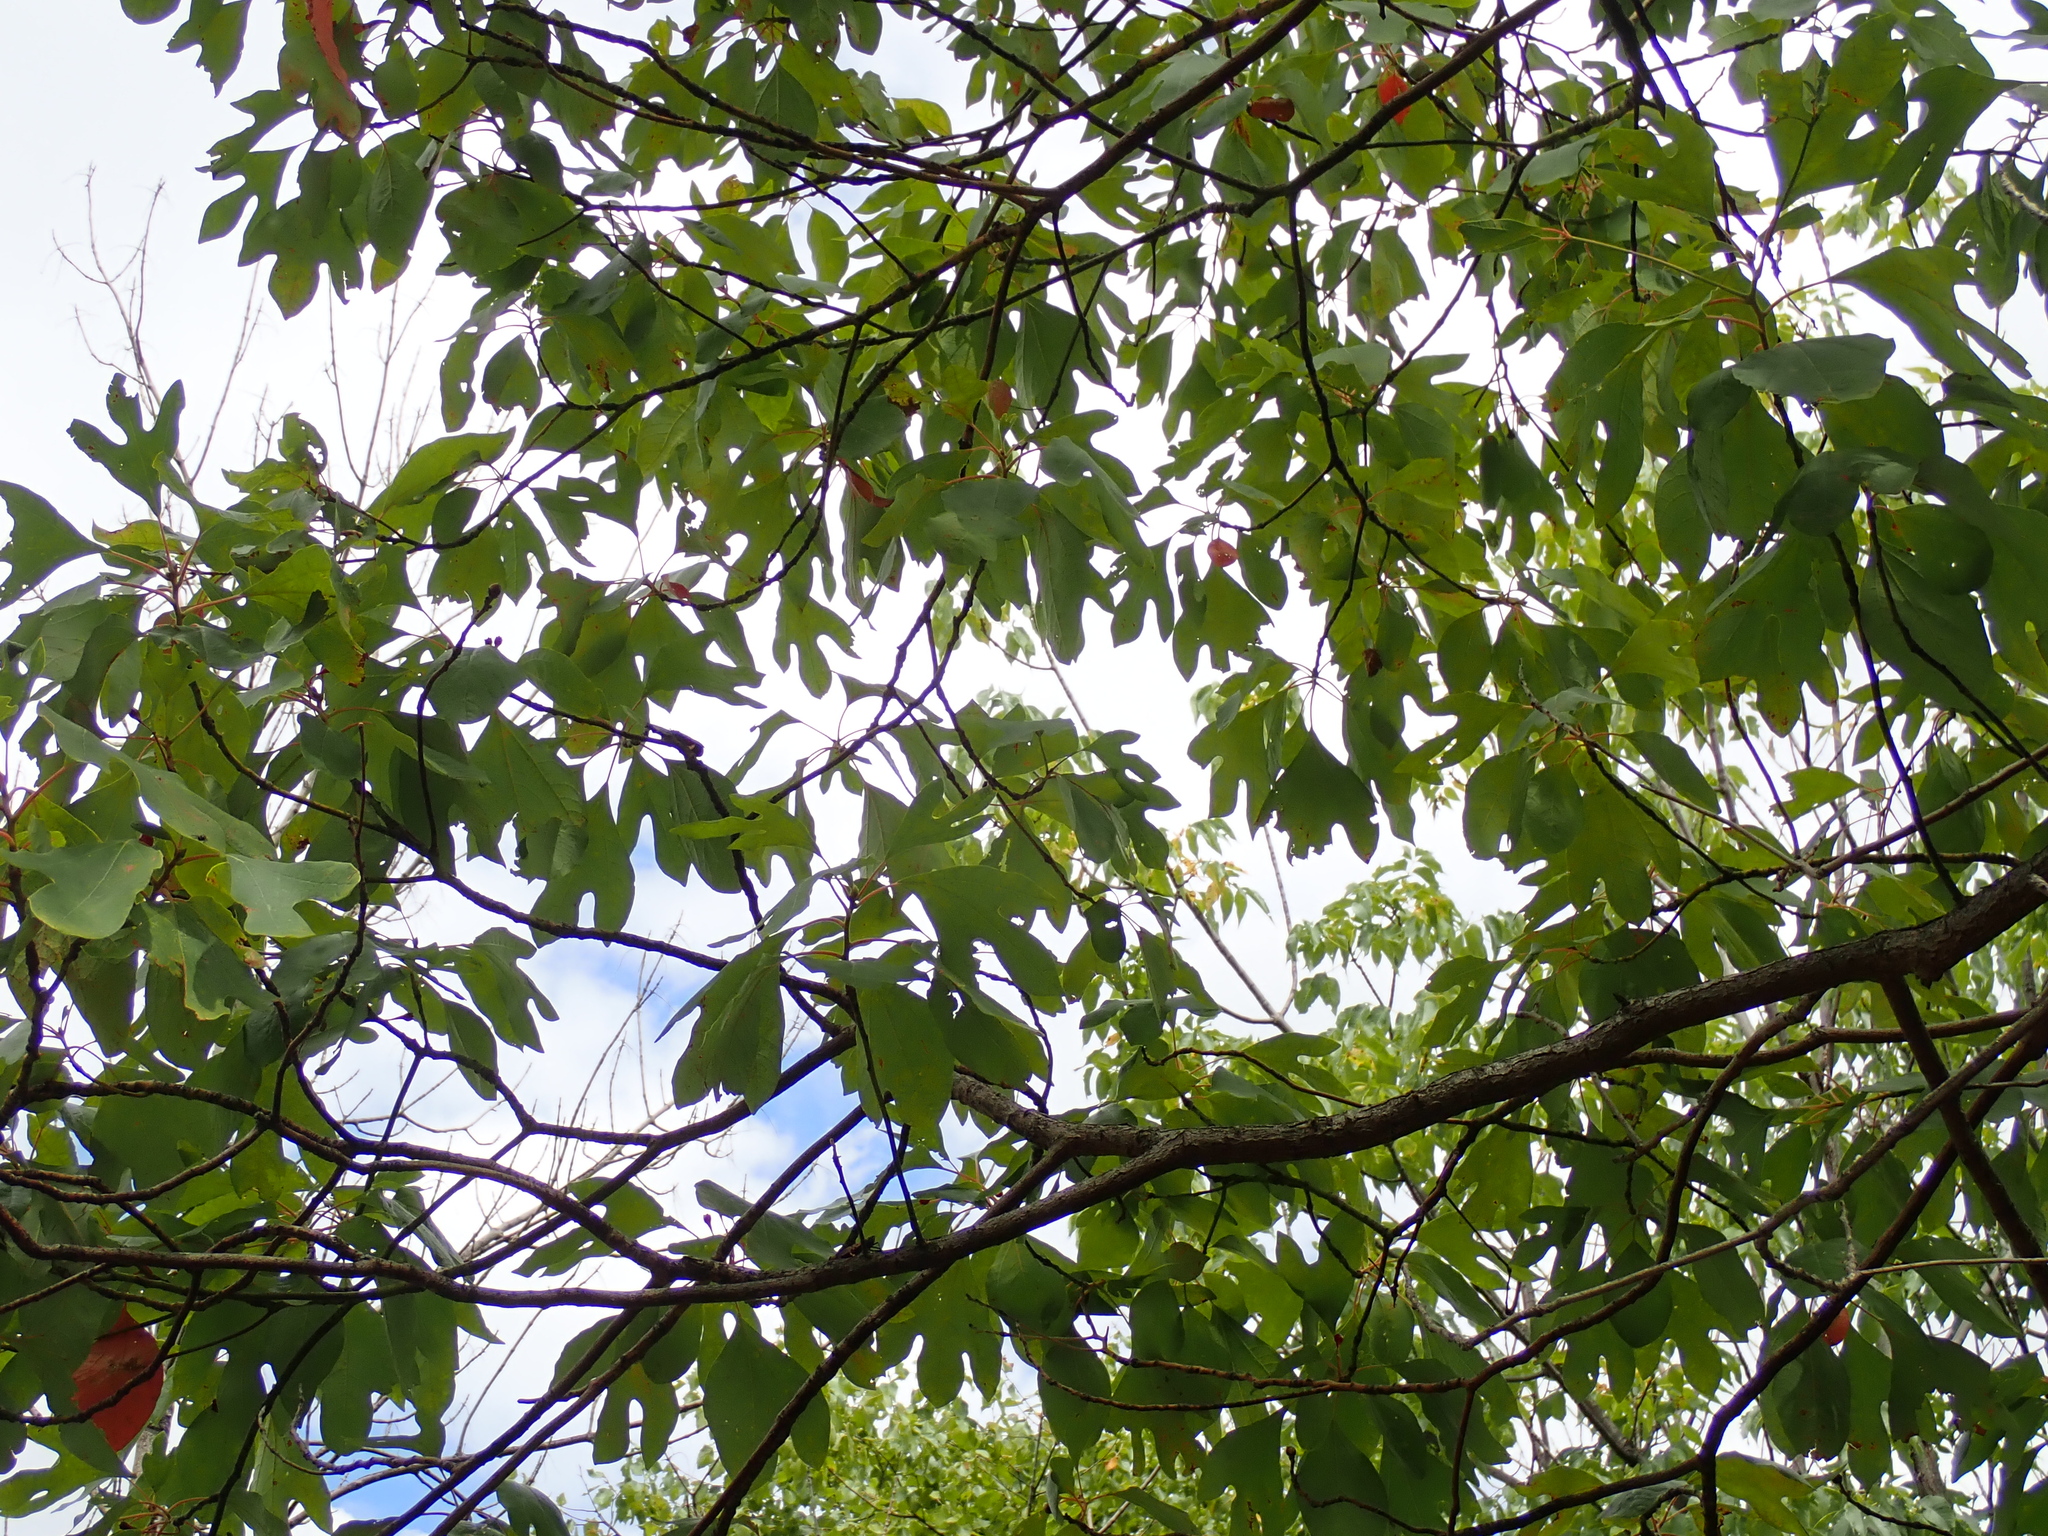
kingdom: Plantae
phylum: Tracheophyta
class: Magnoliopsida
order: Laurales
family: Lauraceae
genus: Sassafras
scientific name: Sassafras albidum
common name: Sassafras
